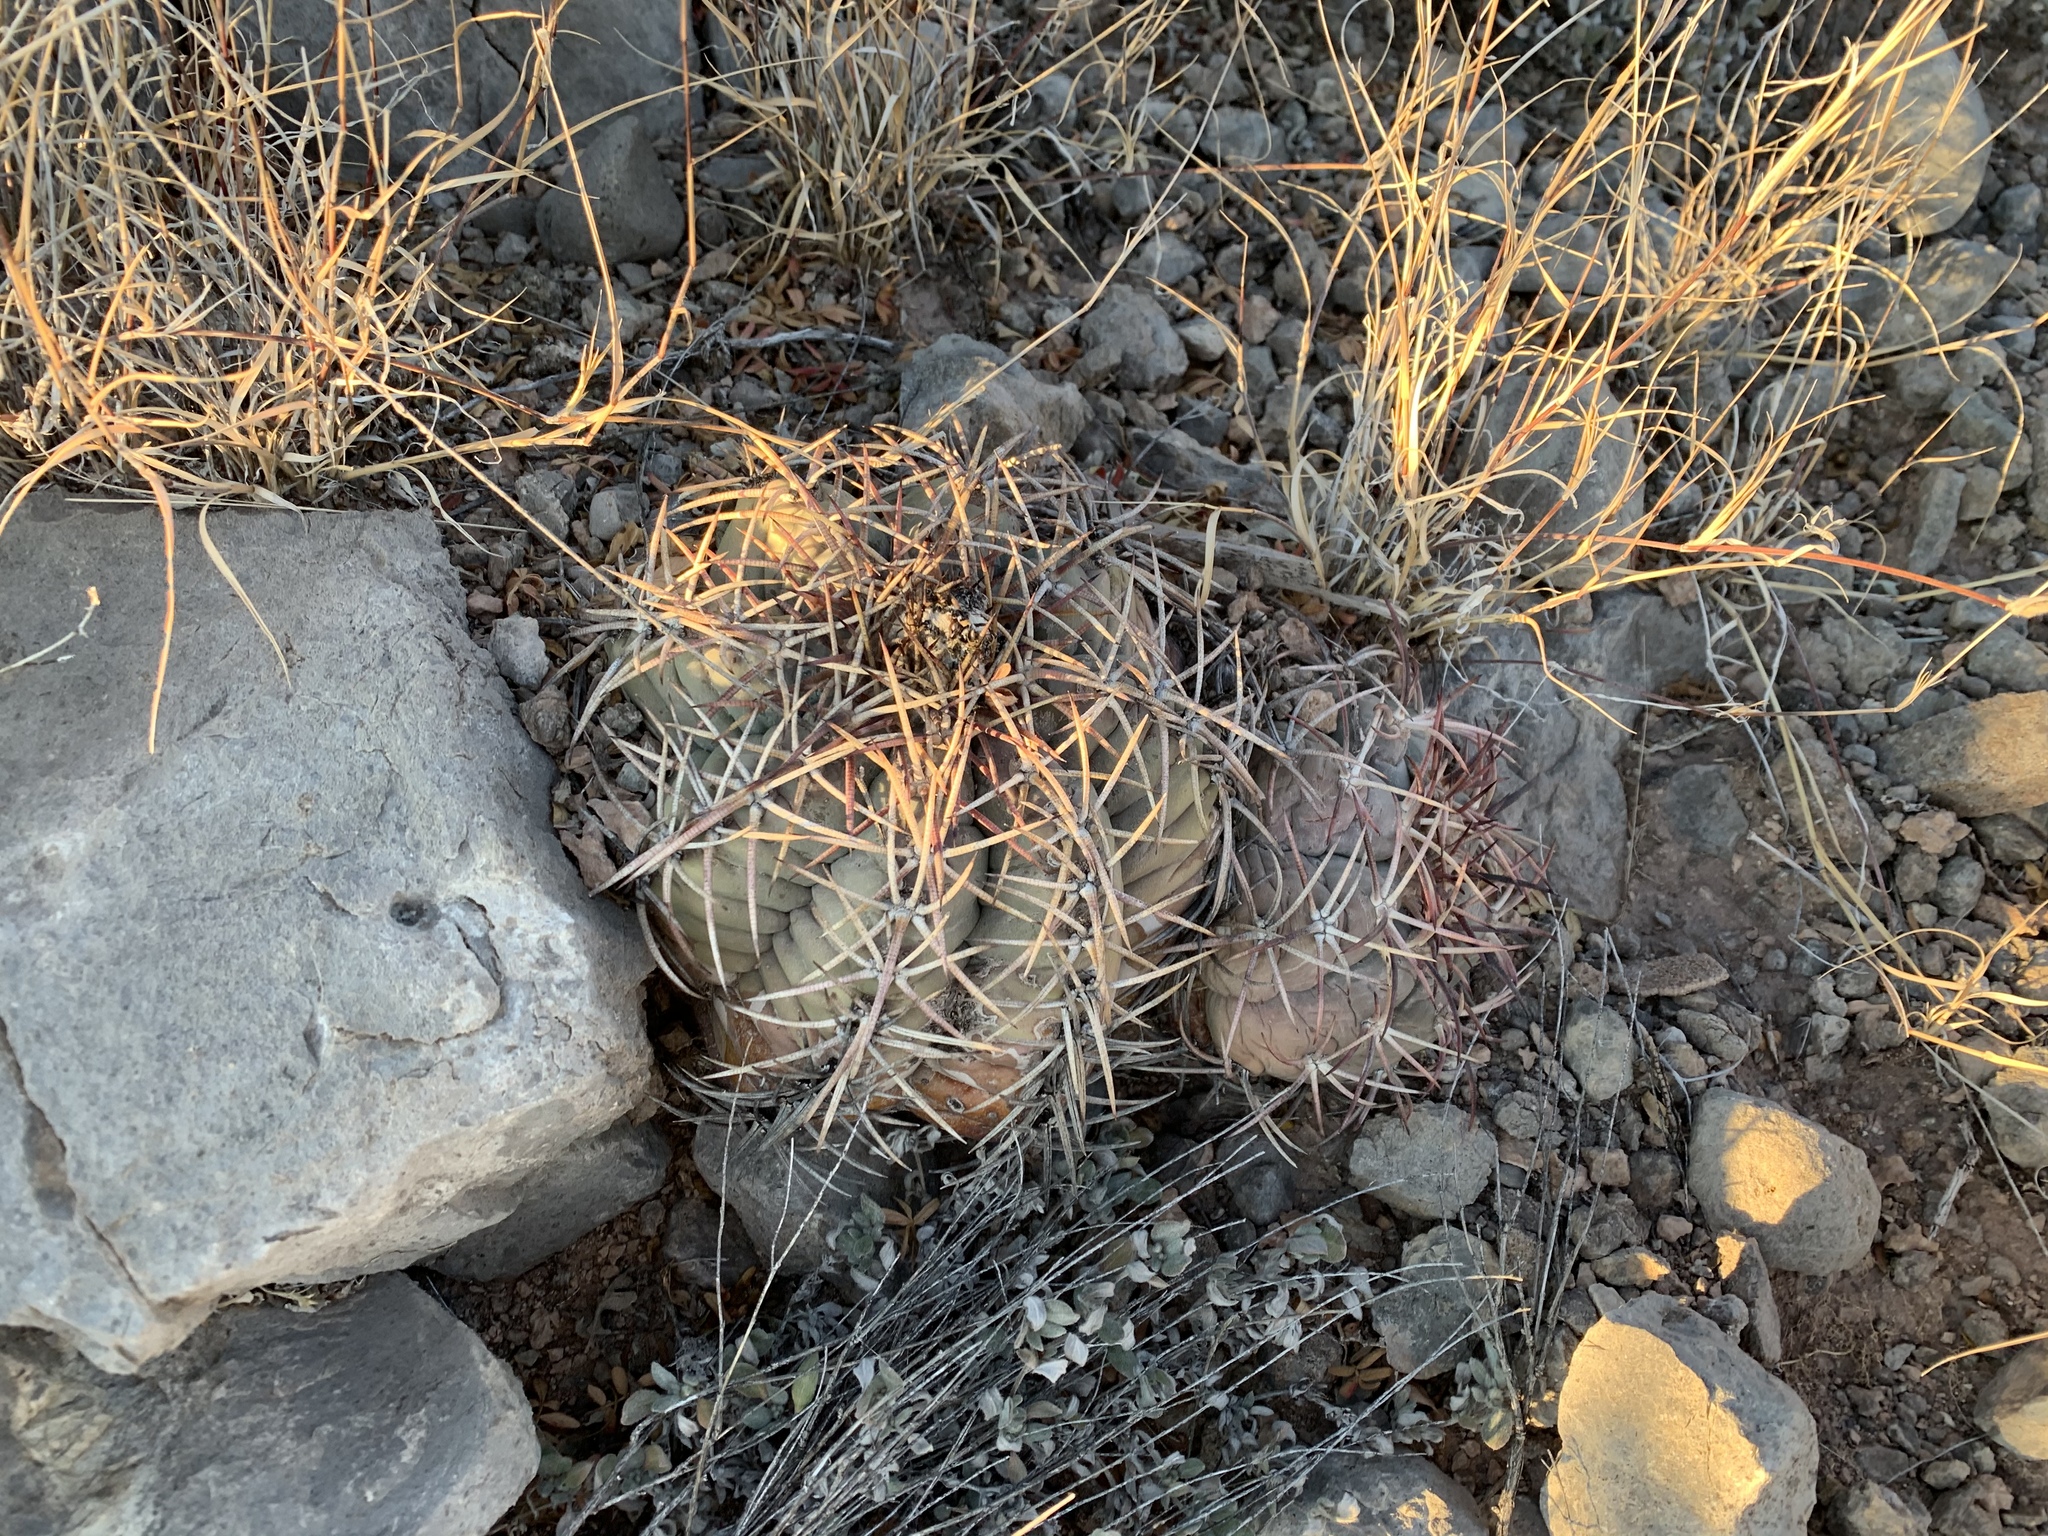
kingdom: Plantae
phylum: Tracheophyta
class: Magnoliopsida
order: Caryophyllales
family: Cactaceae
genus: Echinocactus
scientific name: Echinocactus horizonthalonius
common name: Devilshead
